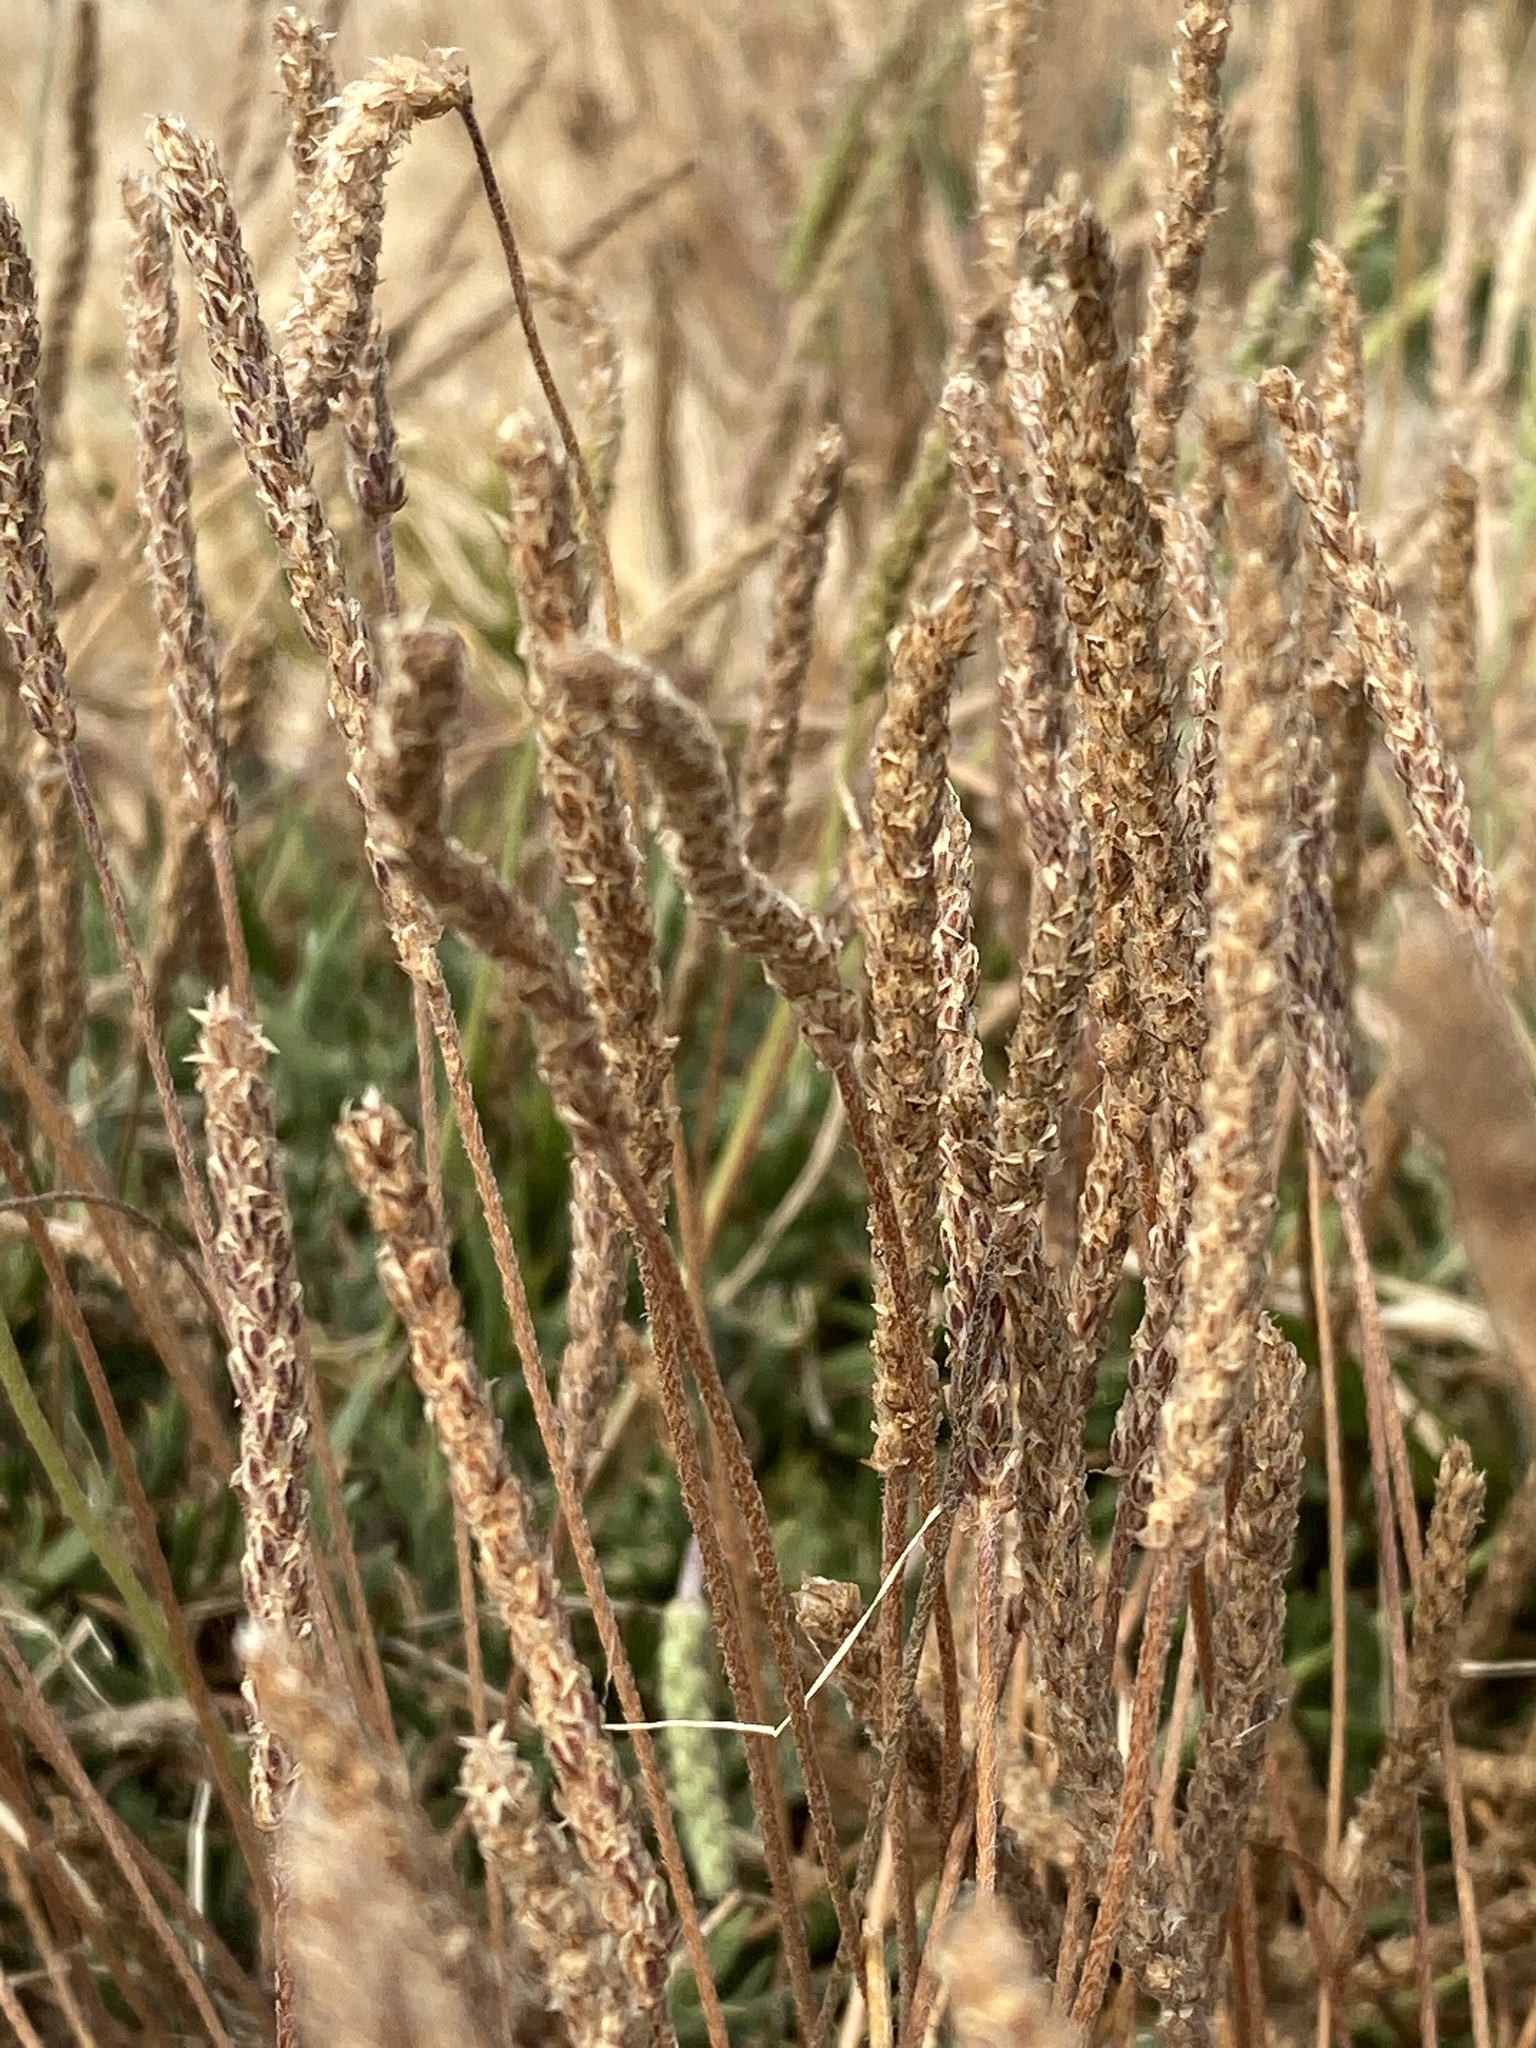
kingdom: Plantae
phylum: Tracheophyta
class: Magnoliopsida
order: Lamiales
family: Plantaginaceae
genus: Plantago
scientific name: Plantago coronopus
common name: Buck's-horn plantain
